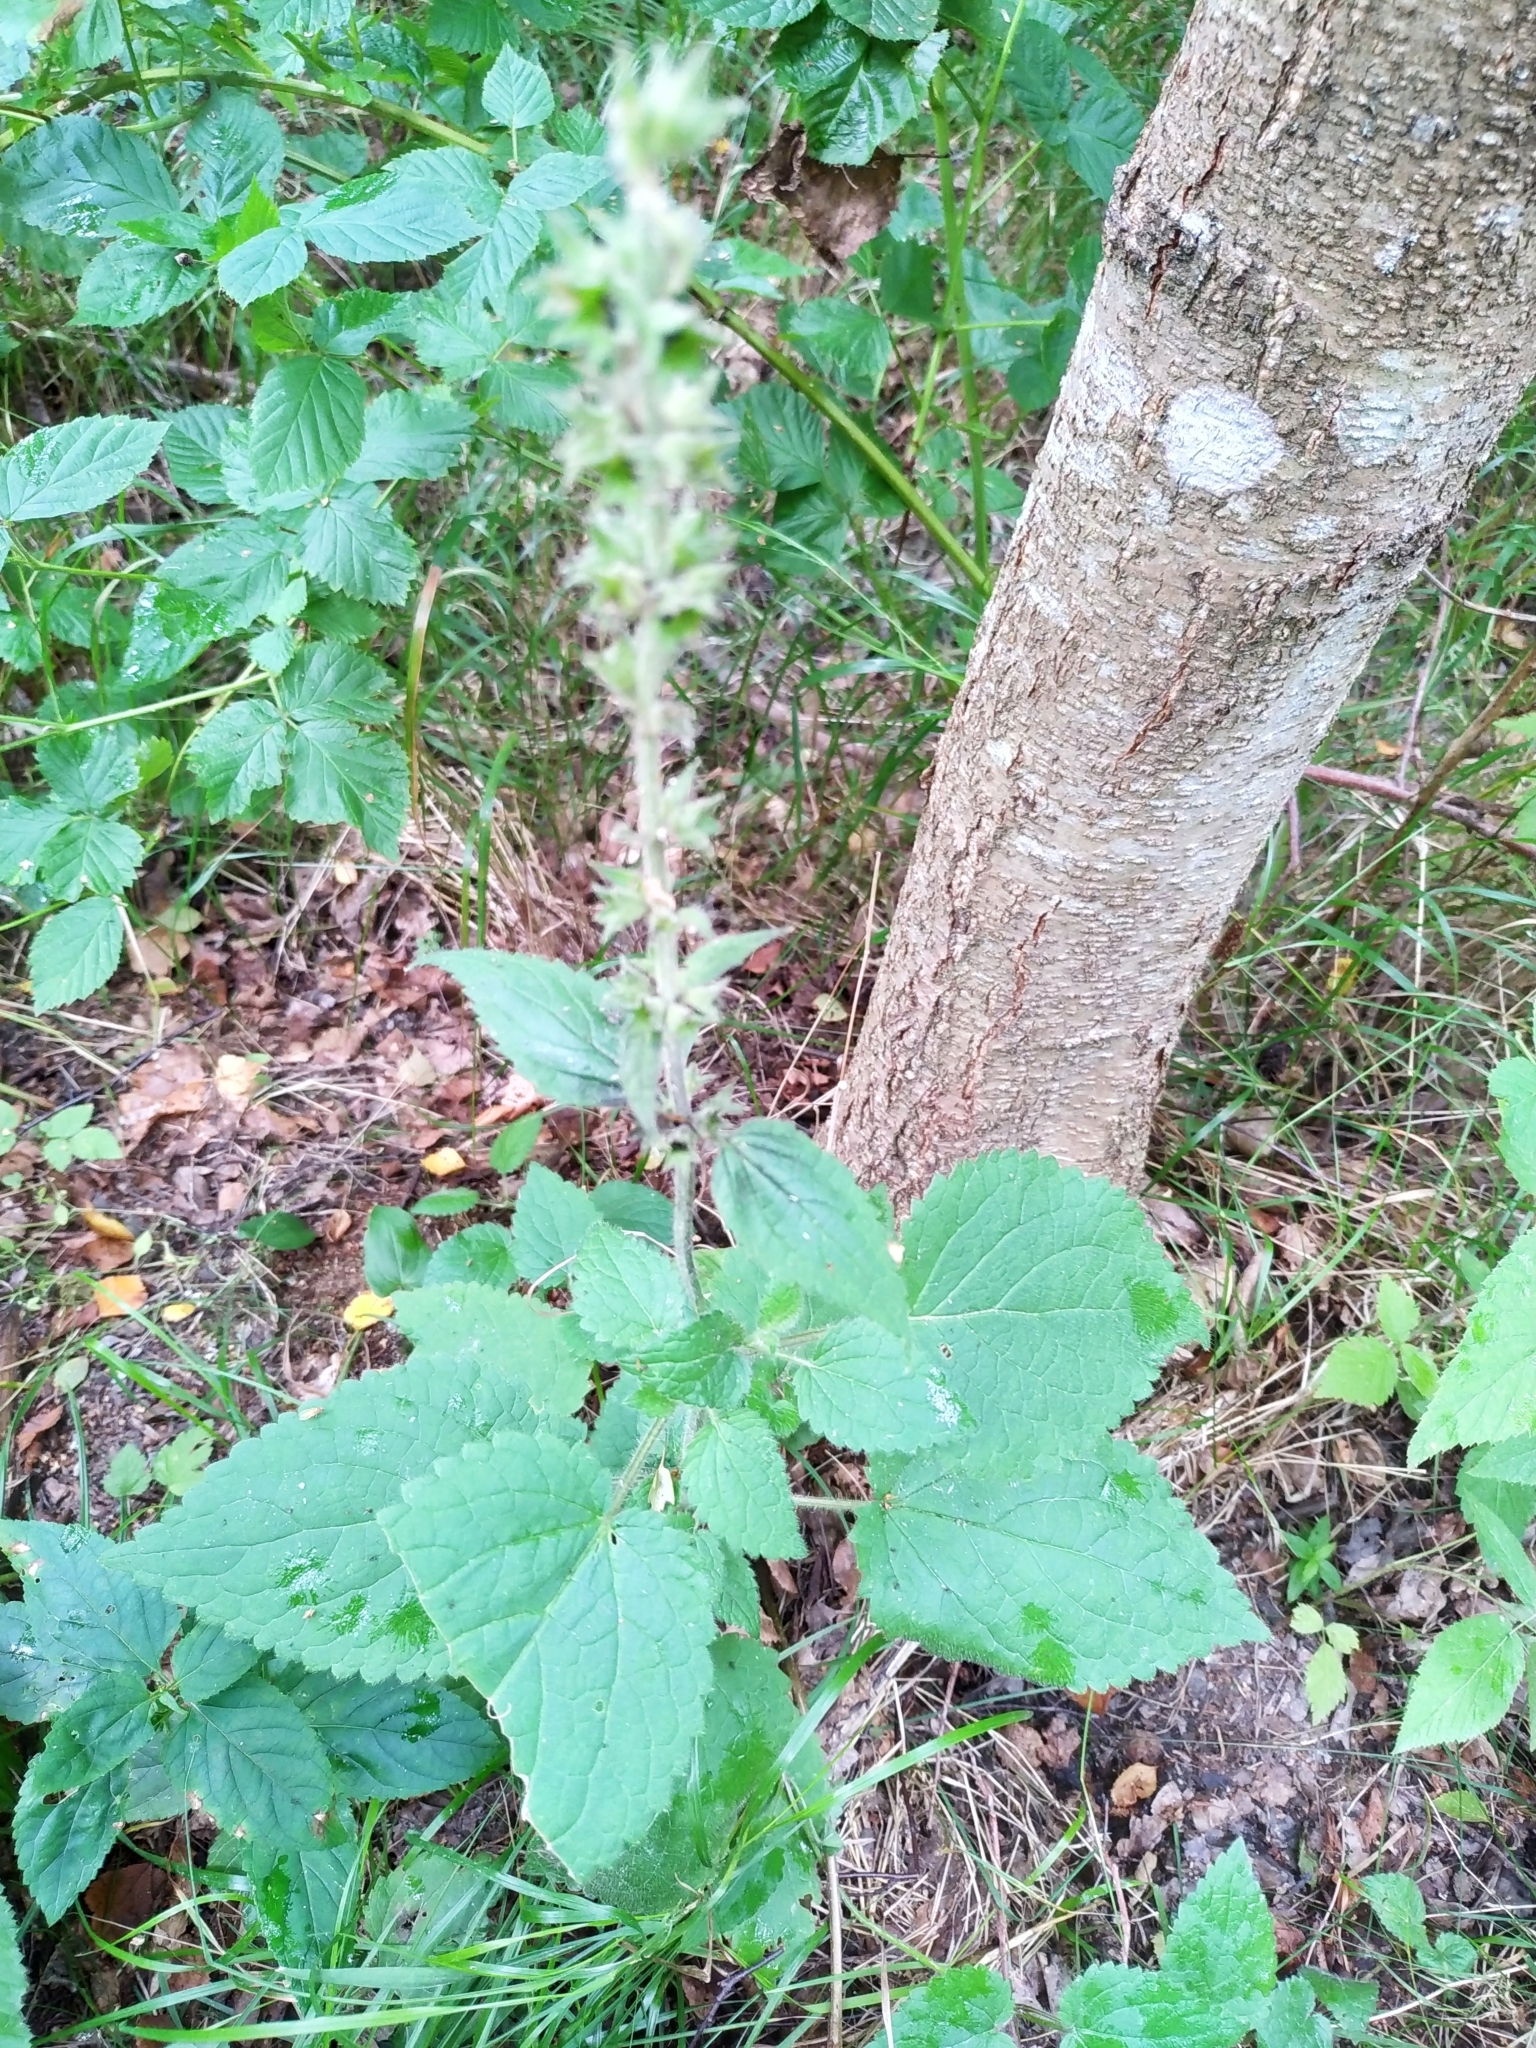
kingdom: Plantae
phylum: Tracheophyta
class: Magnoliopsida
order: Lamiales
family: Lamiaceae
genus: Stachys
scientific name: Stachys sylvatica
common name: Hedge woundwort
